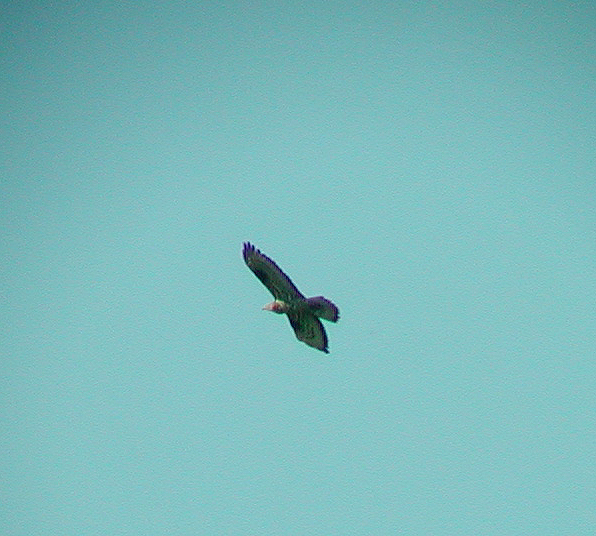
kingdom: Animalia
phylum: Chordata
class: Aves
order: Accipitriformes
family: Accipitridae
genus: Pernis
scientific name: Pernis apivorus
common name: European honey buzzard
